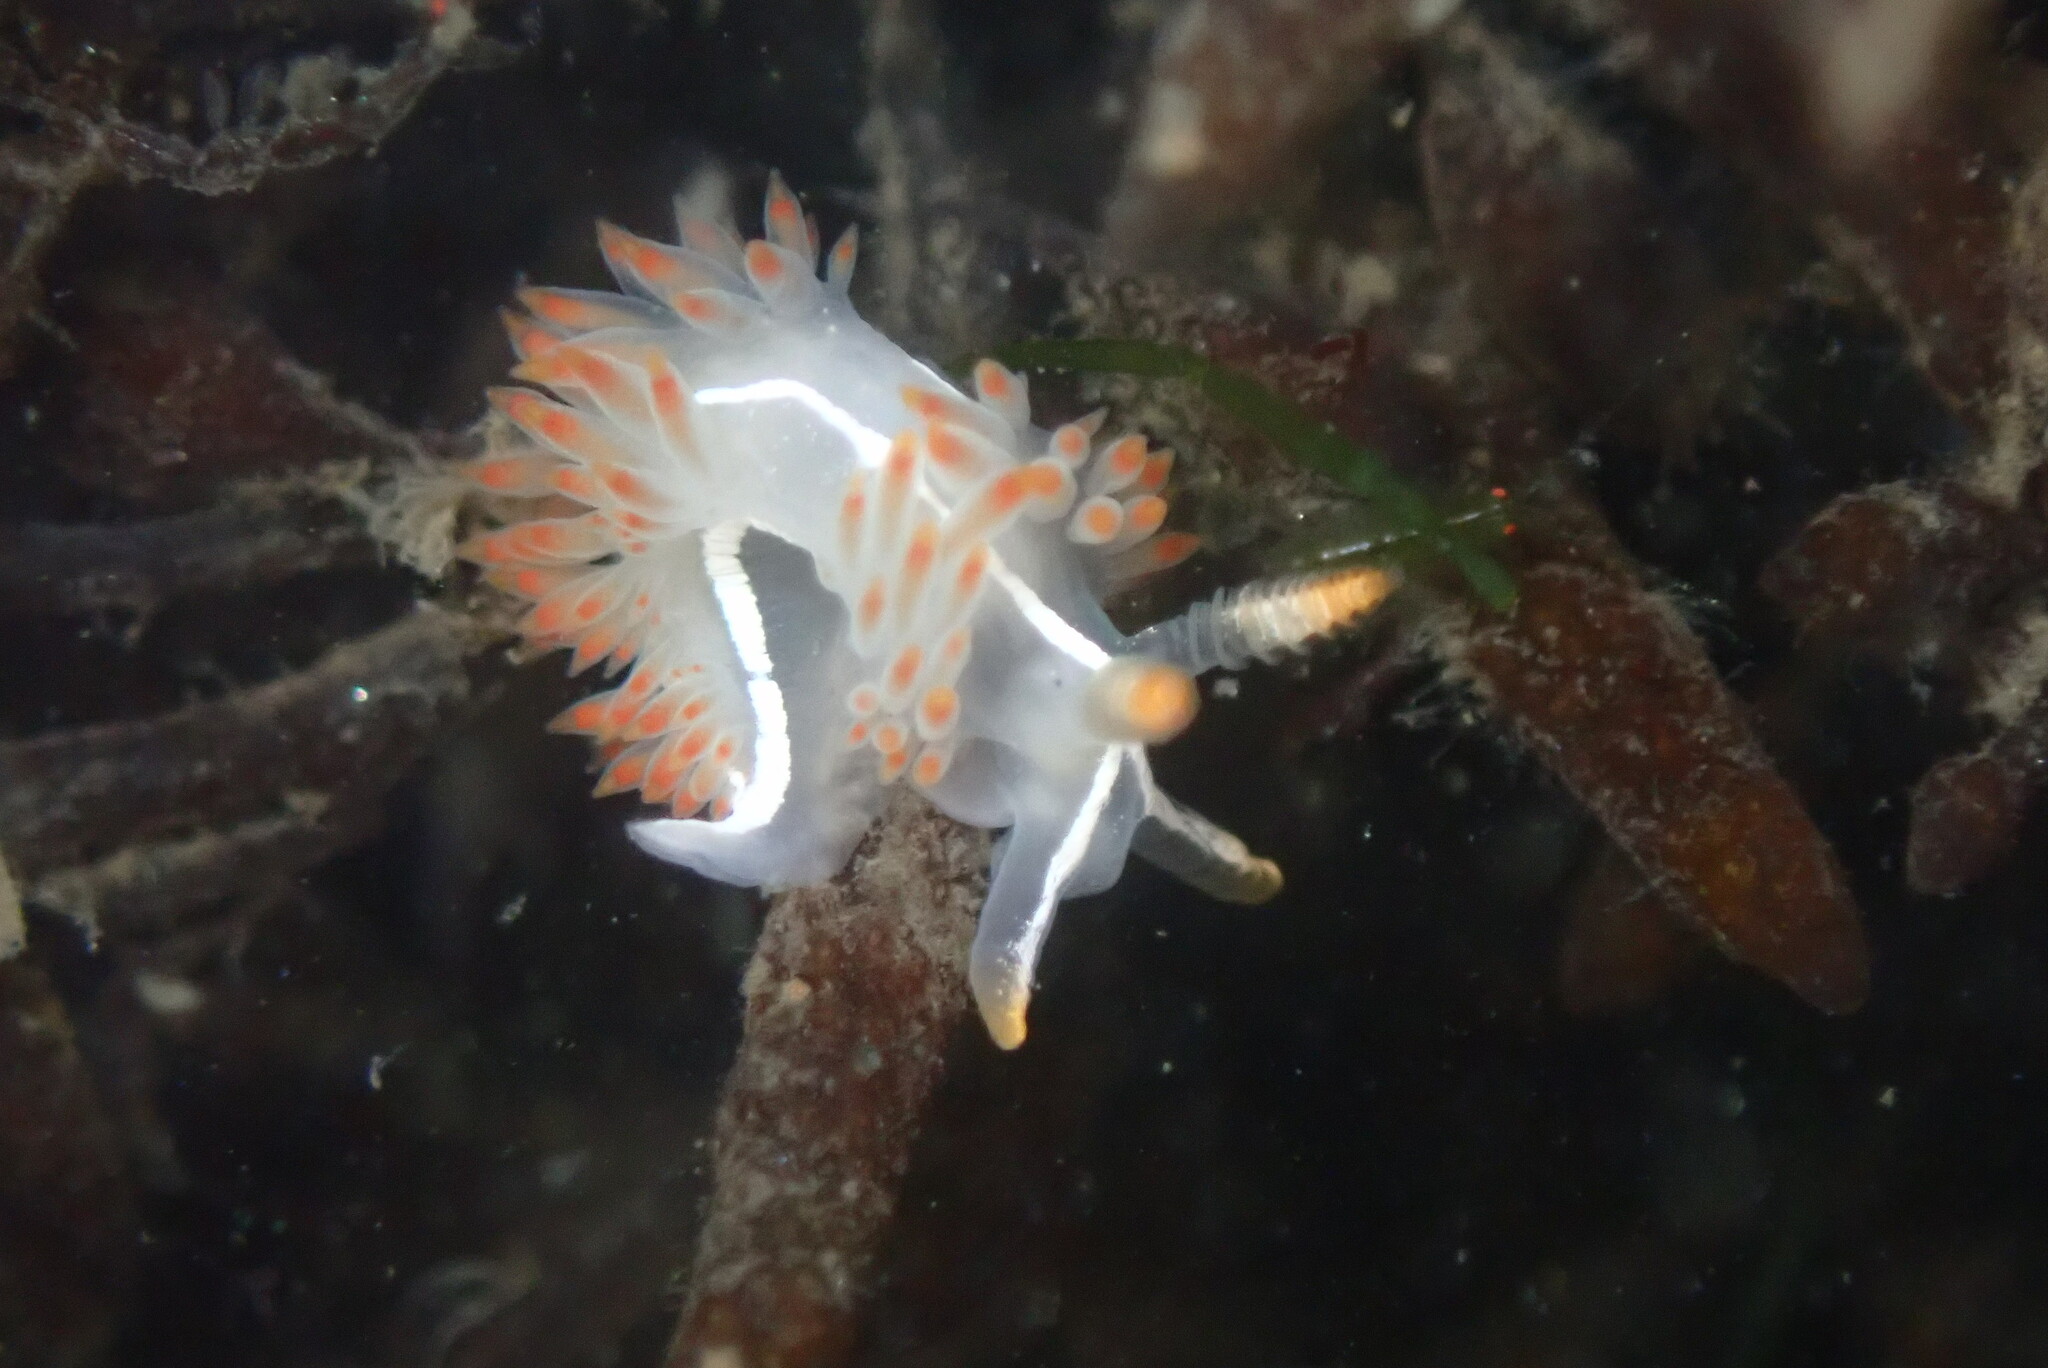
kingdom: Animalia
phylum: Mollusca
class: Gastropoda
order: Nudibranchia
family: Coryphellidae
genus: Coryphella
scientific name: Coryphella trilineata
